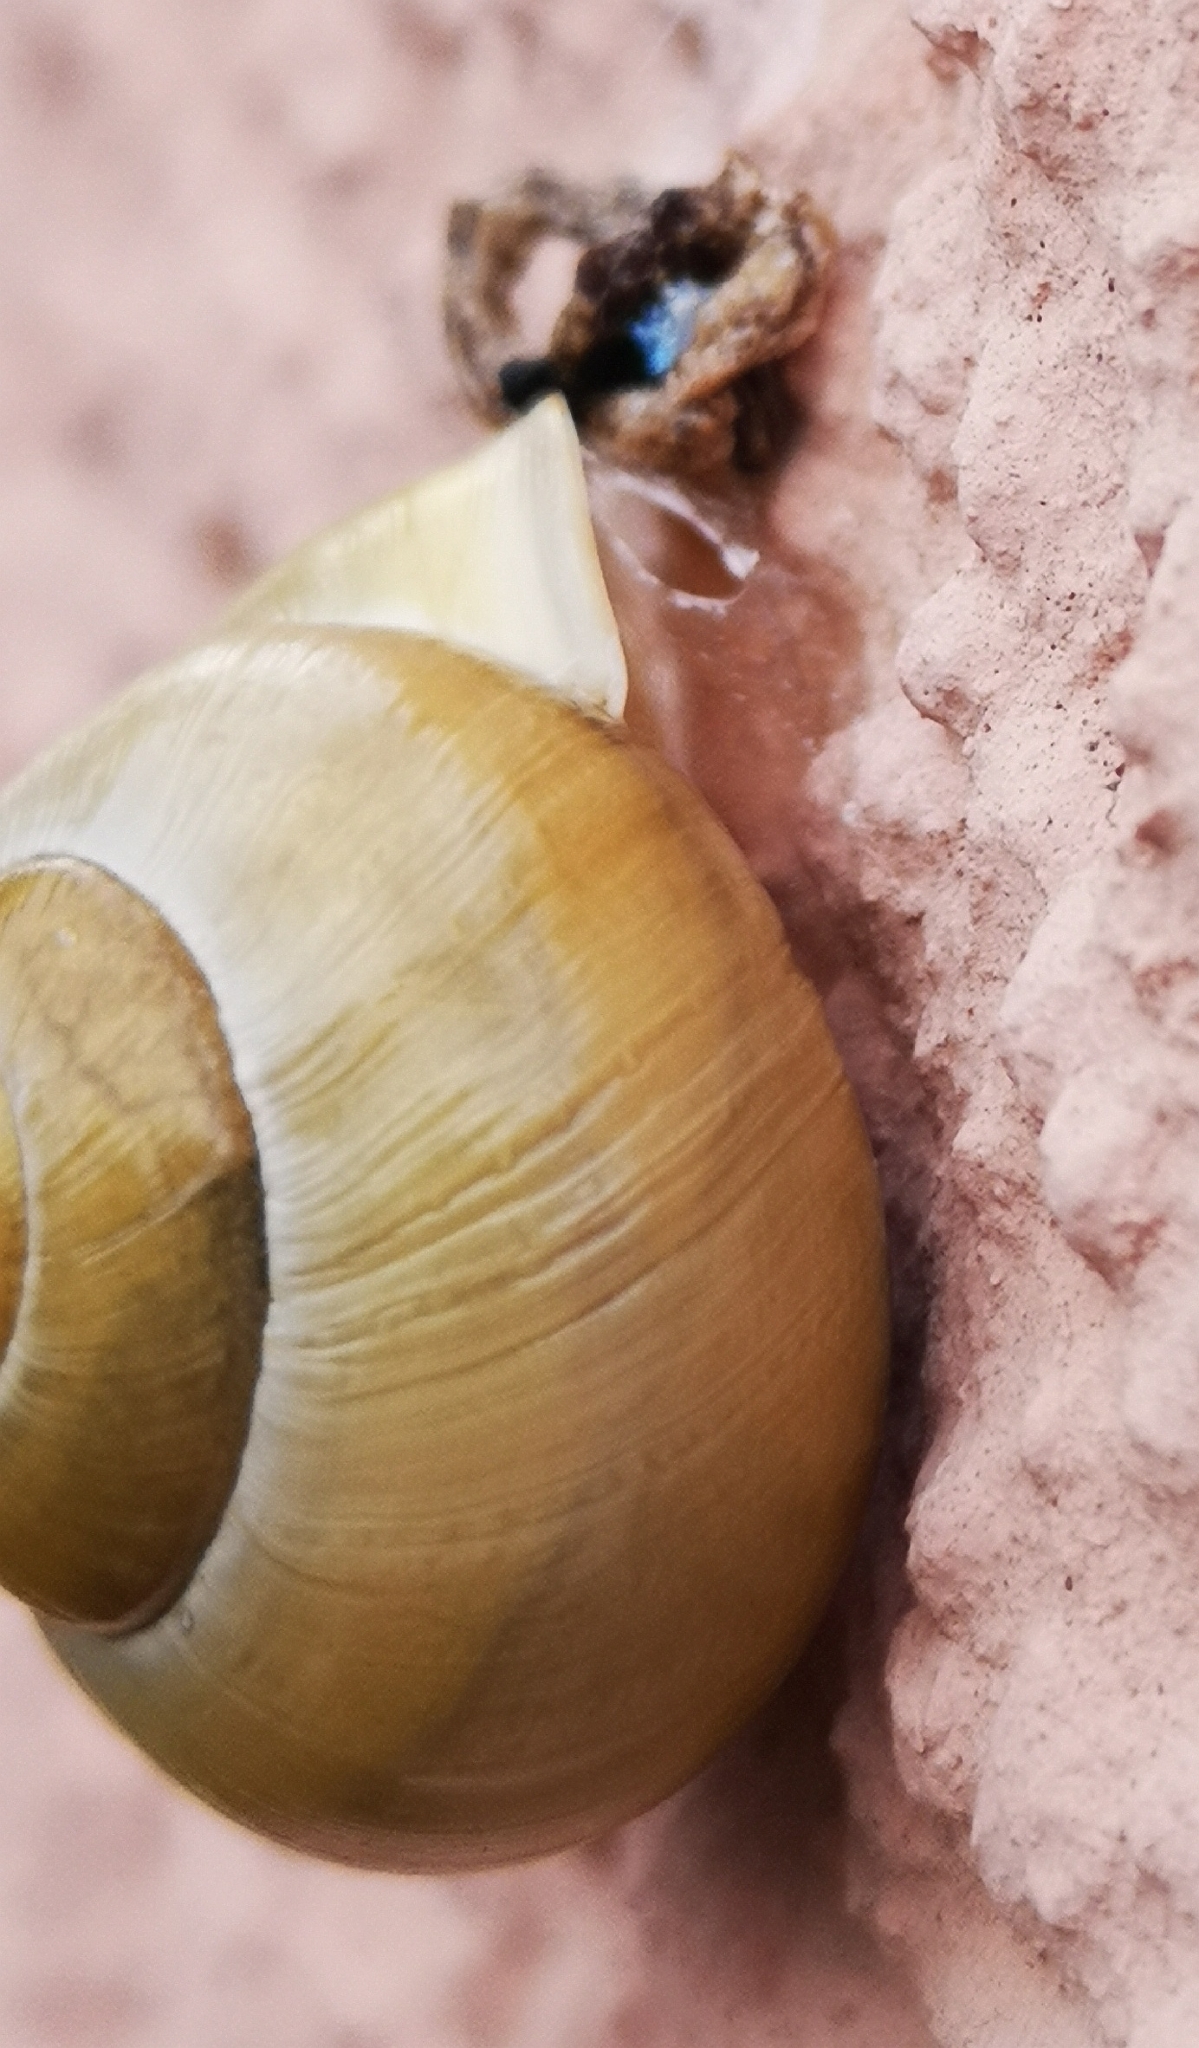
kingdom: Animalia
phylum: Mollusca
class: Gastropoda
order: Stylommatophora
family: Helicidae
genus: Cepaea
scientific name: Cepaea hortensis
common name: White-lip gardensnail
